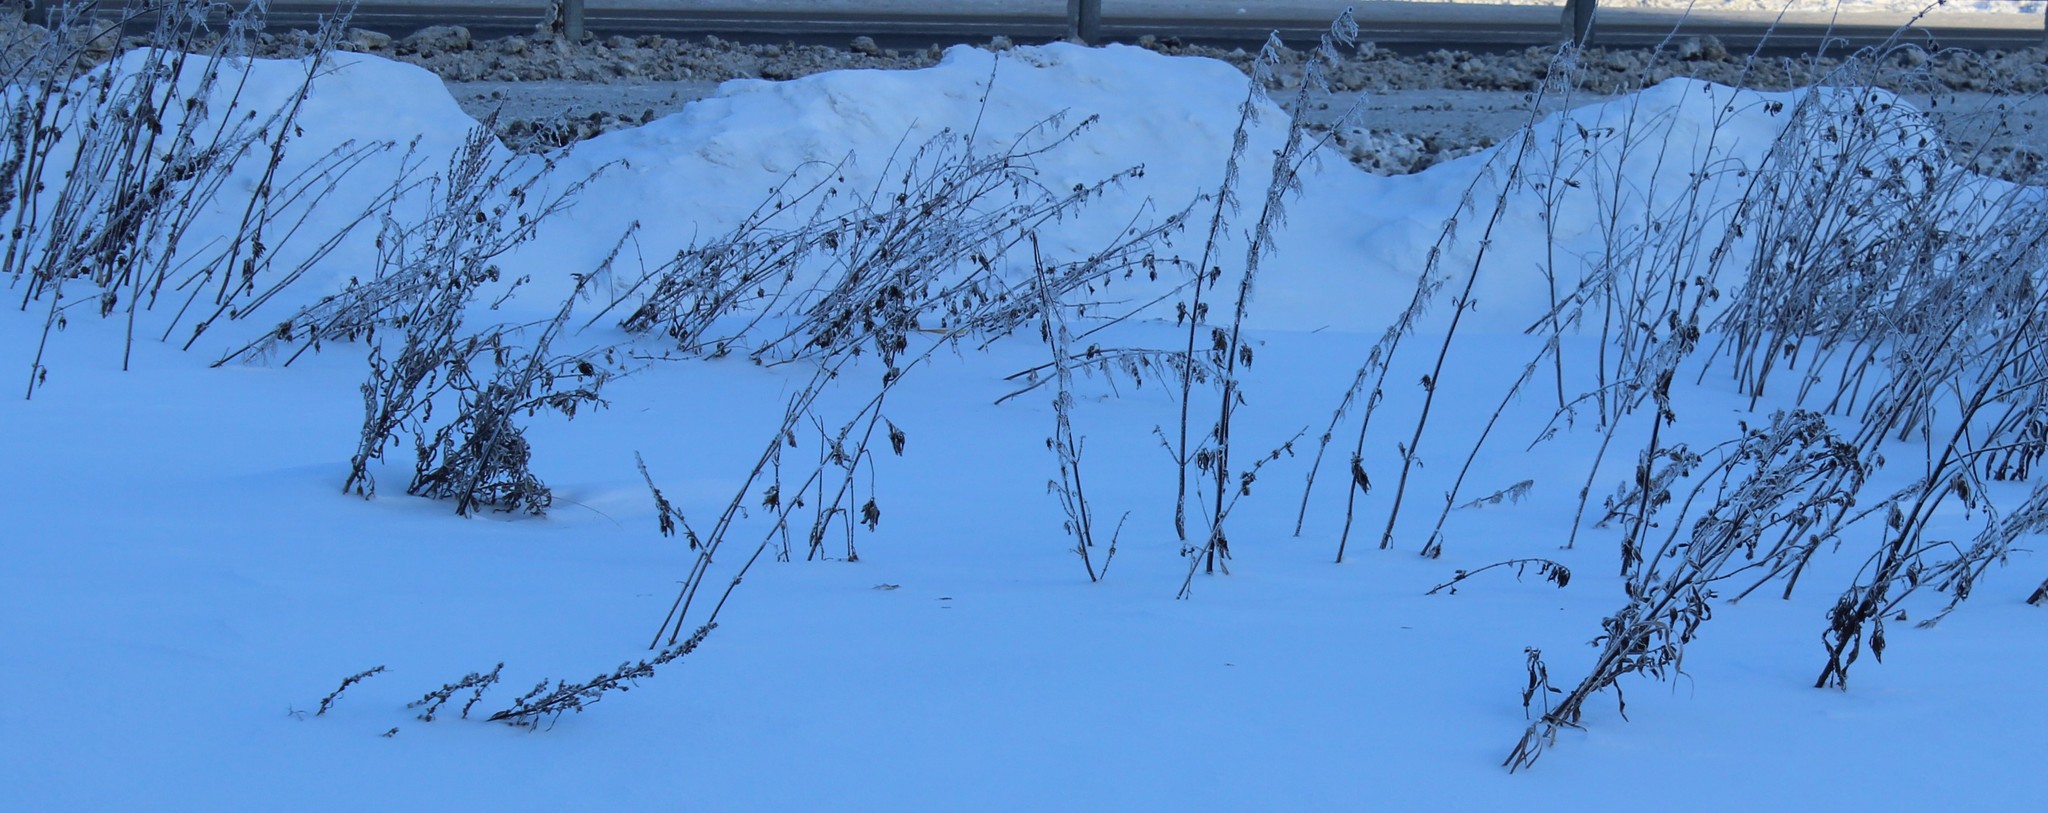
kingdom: Plantae
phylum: Tracheophyta
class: Magnoliopsida
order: Rosales
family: Urticaceae
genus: Urtica
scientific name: Urtica dioica
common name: Common nettle
